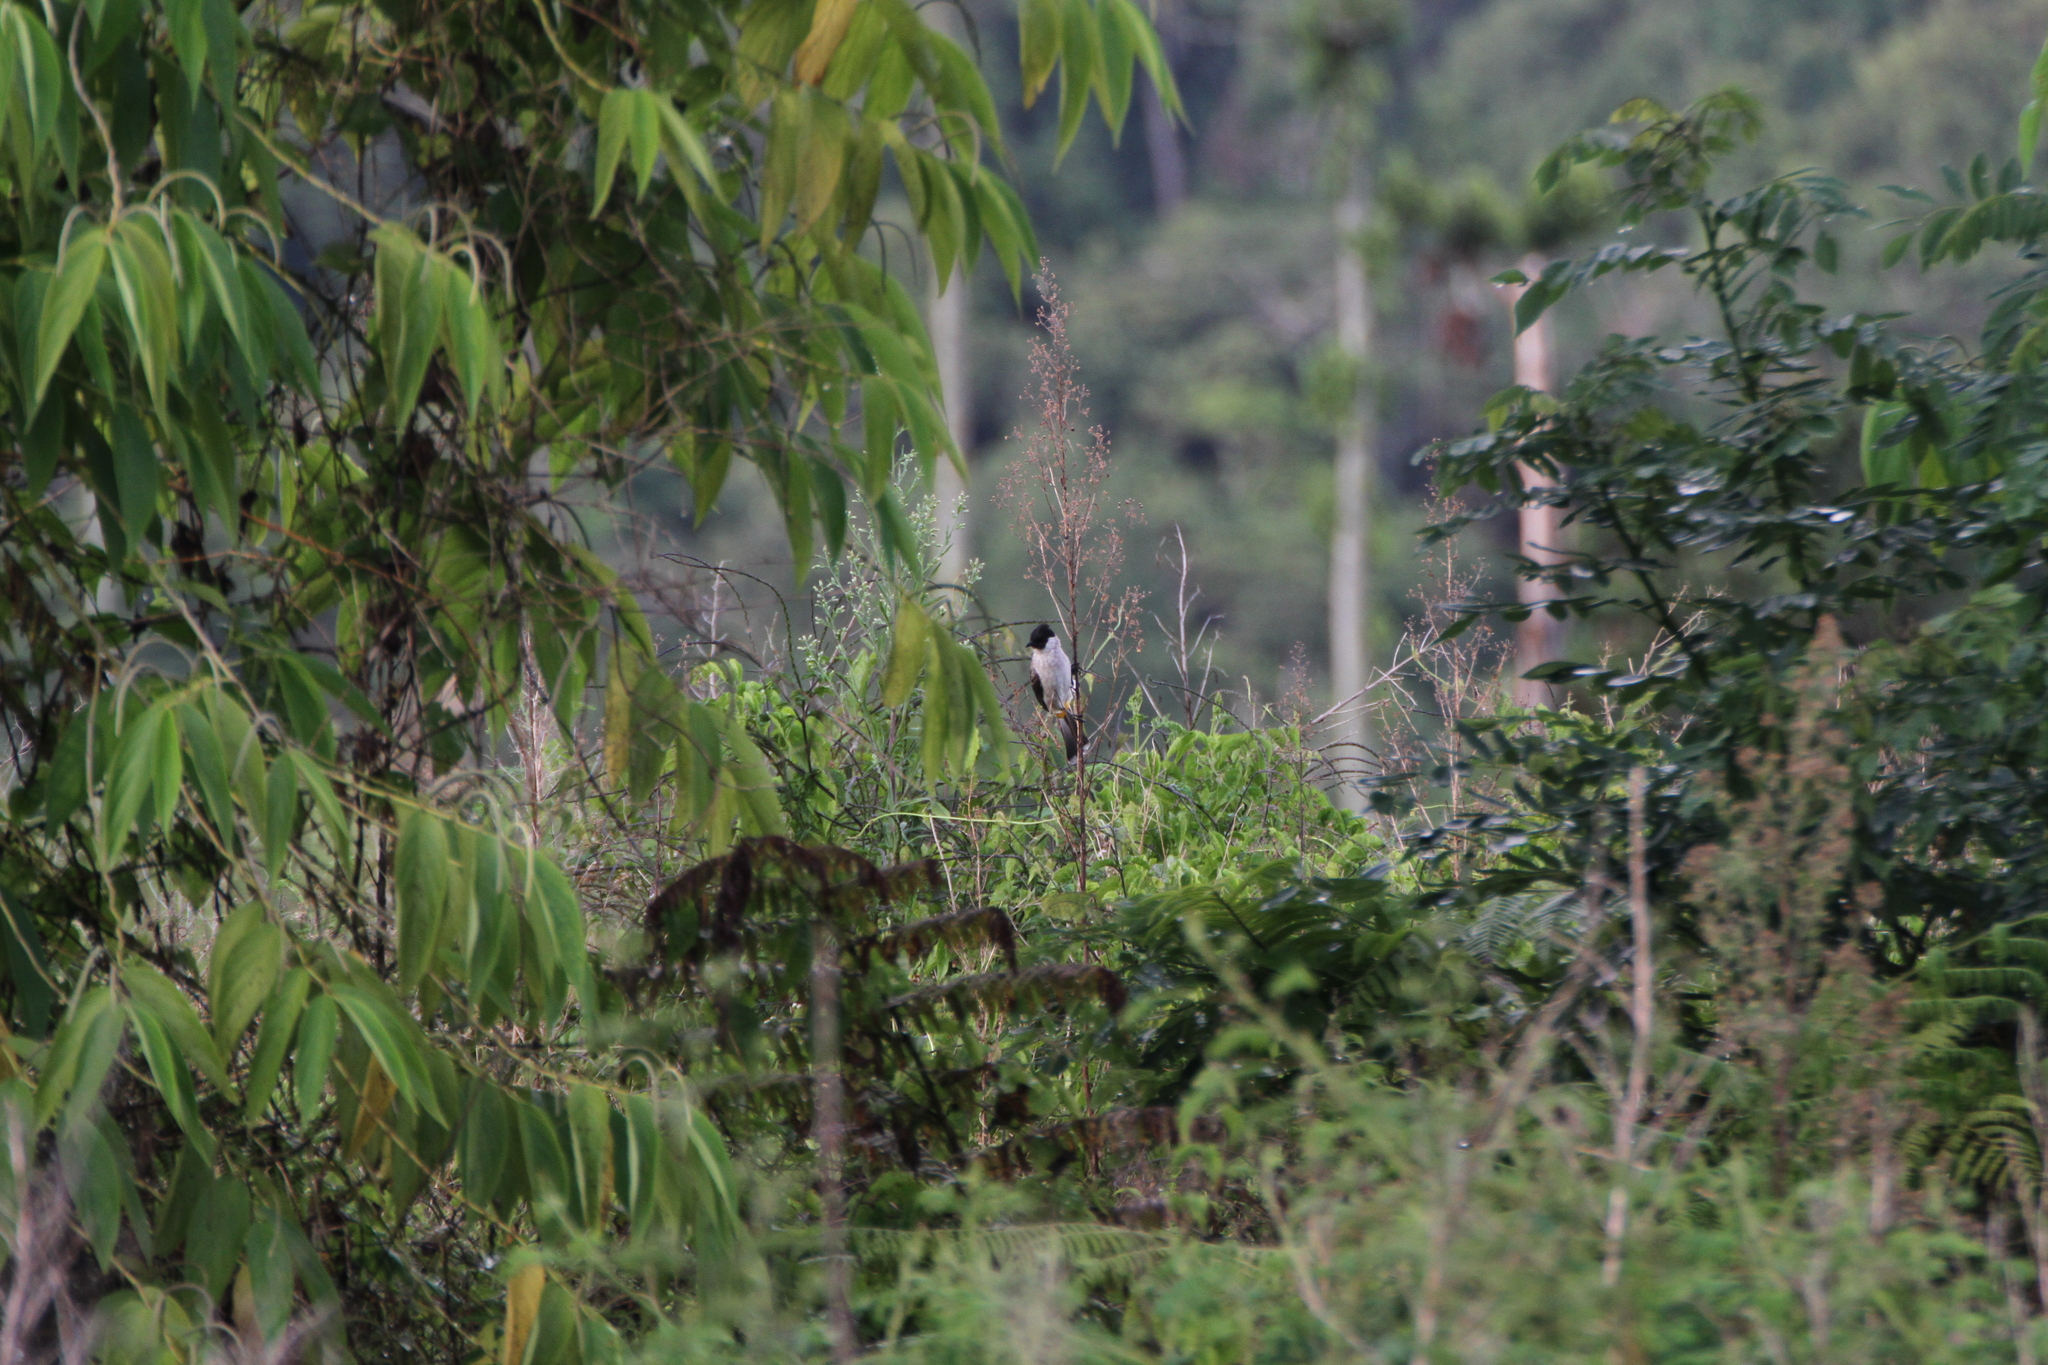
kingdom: Animalia
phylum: Chordata
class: Aves
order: Passeriformes
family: Pycnonotidae
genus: Pycnonotus
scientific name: Pycnonotus aurigaster
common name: Sooty-headed bulbul
